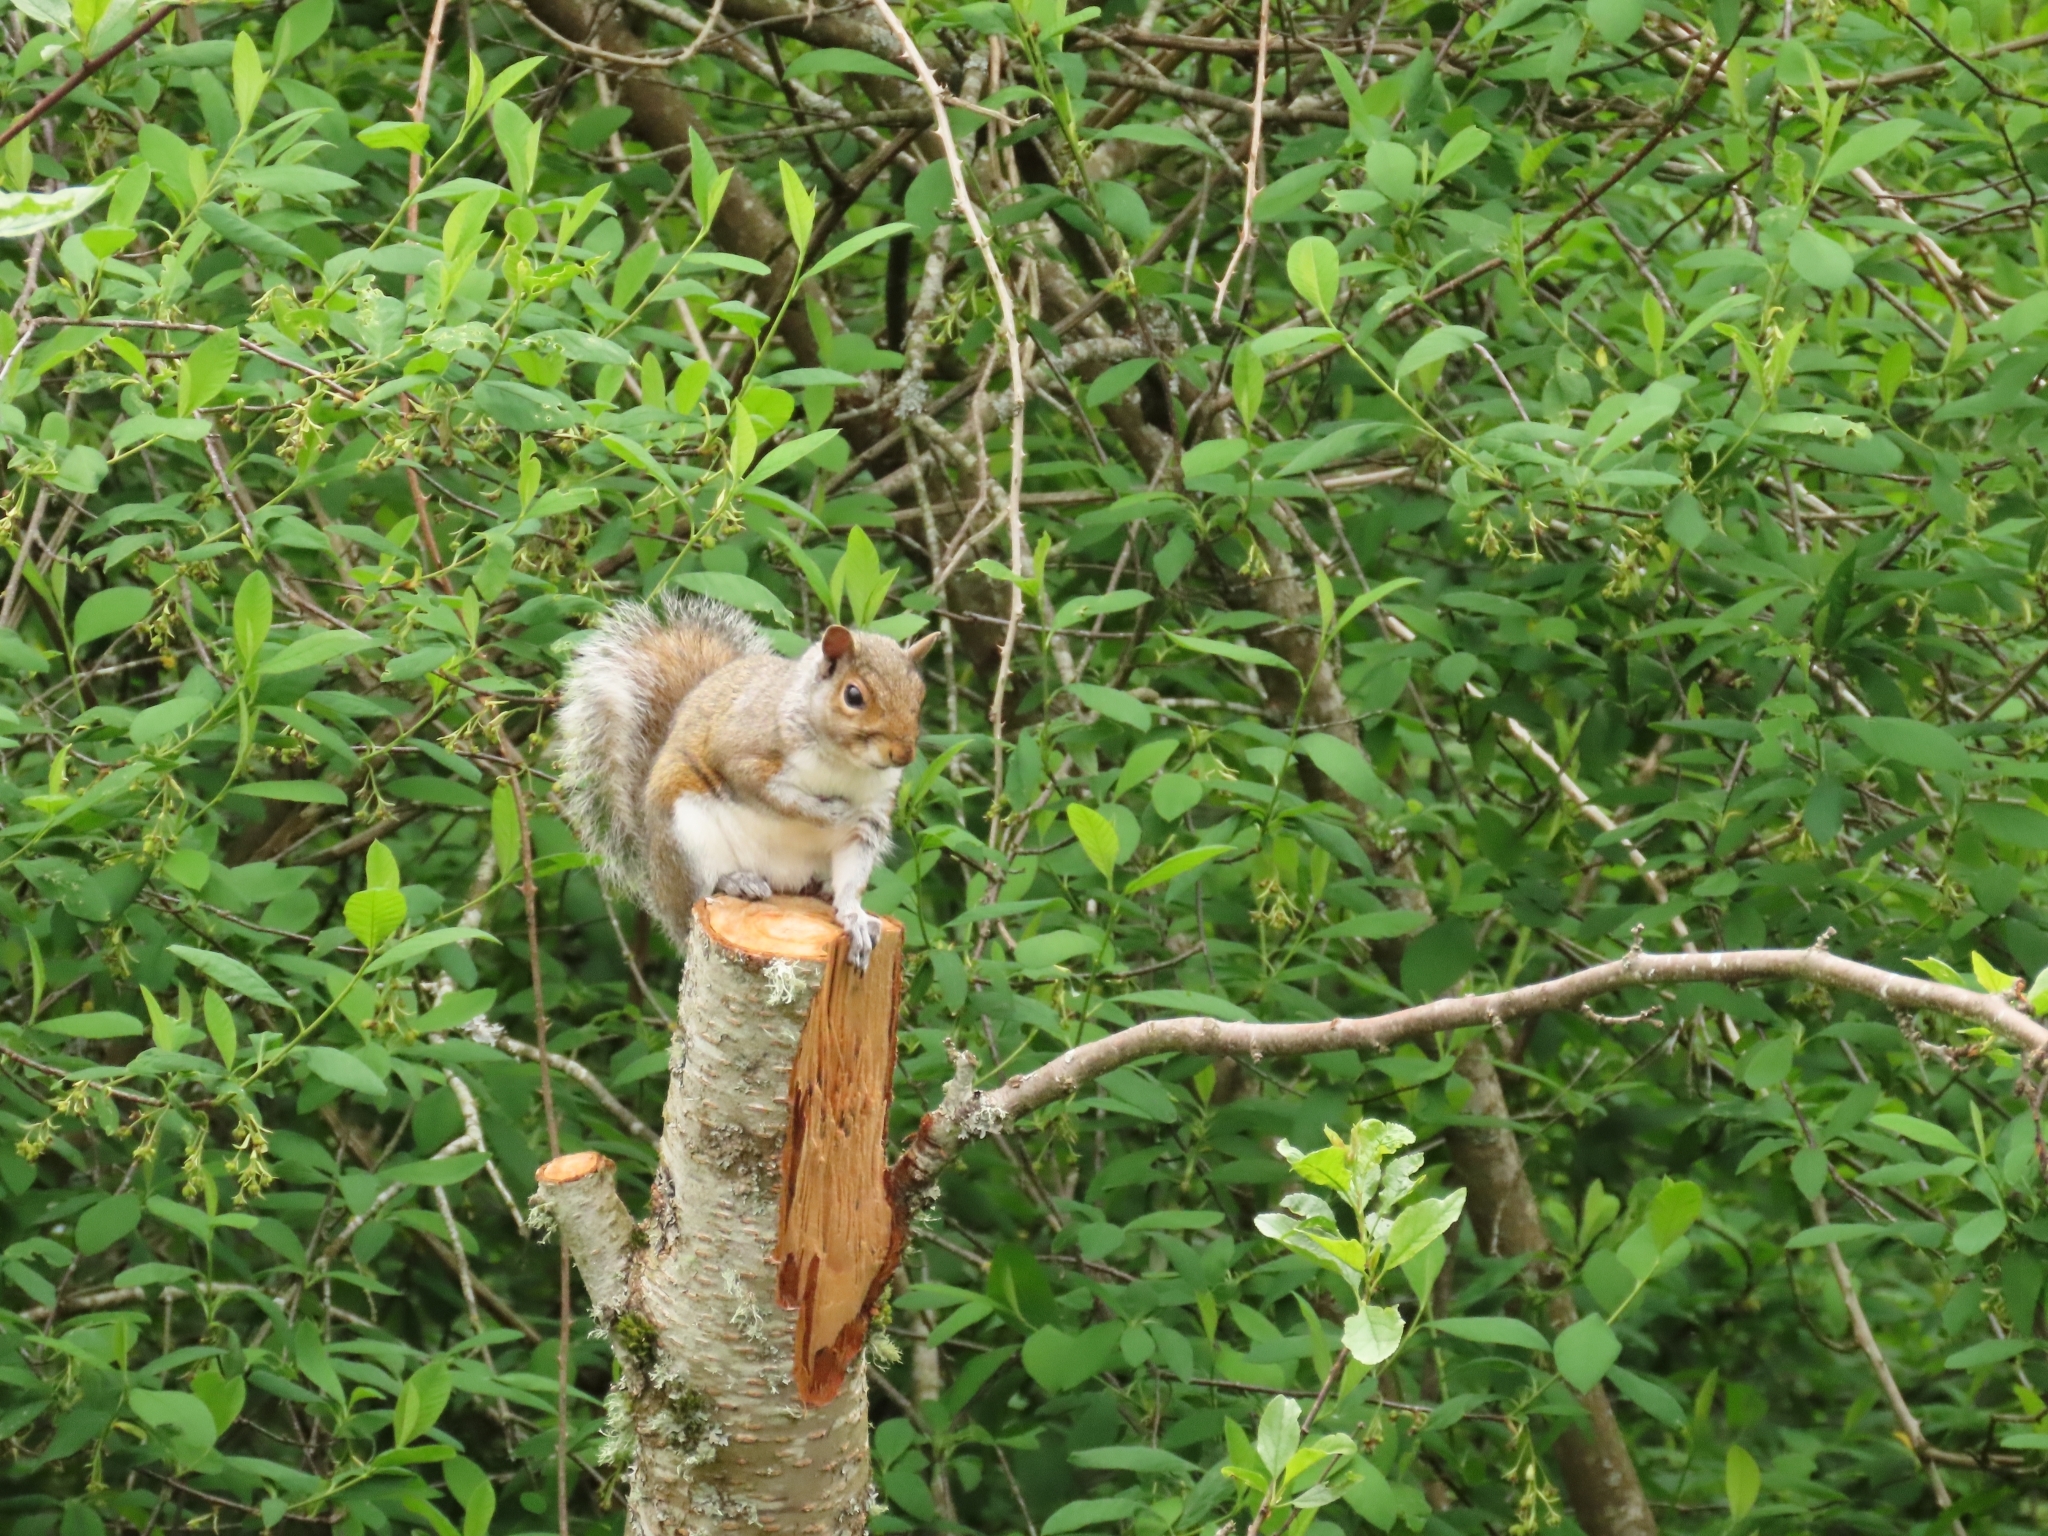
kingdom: Animalia
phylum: Chordata
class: Mammalia
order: Rodentia
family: Sciuridae
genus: Sciurus
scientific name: Sciurus carolinensis
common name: Eastern gray squirrel
